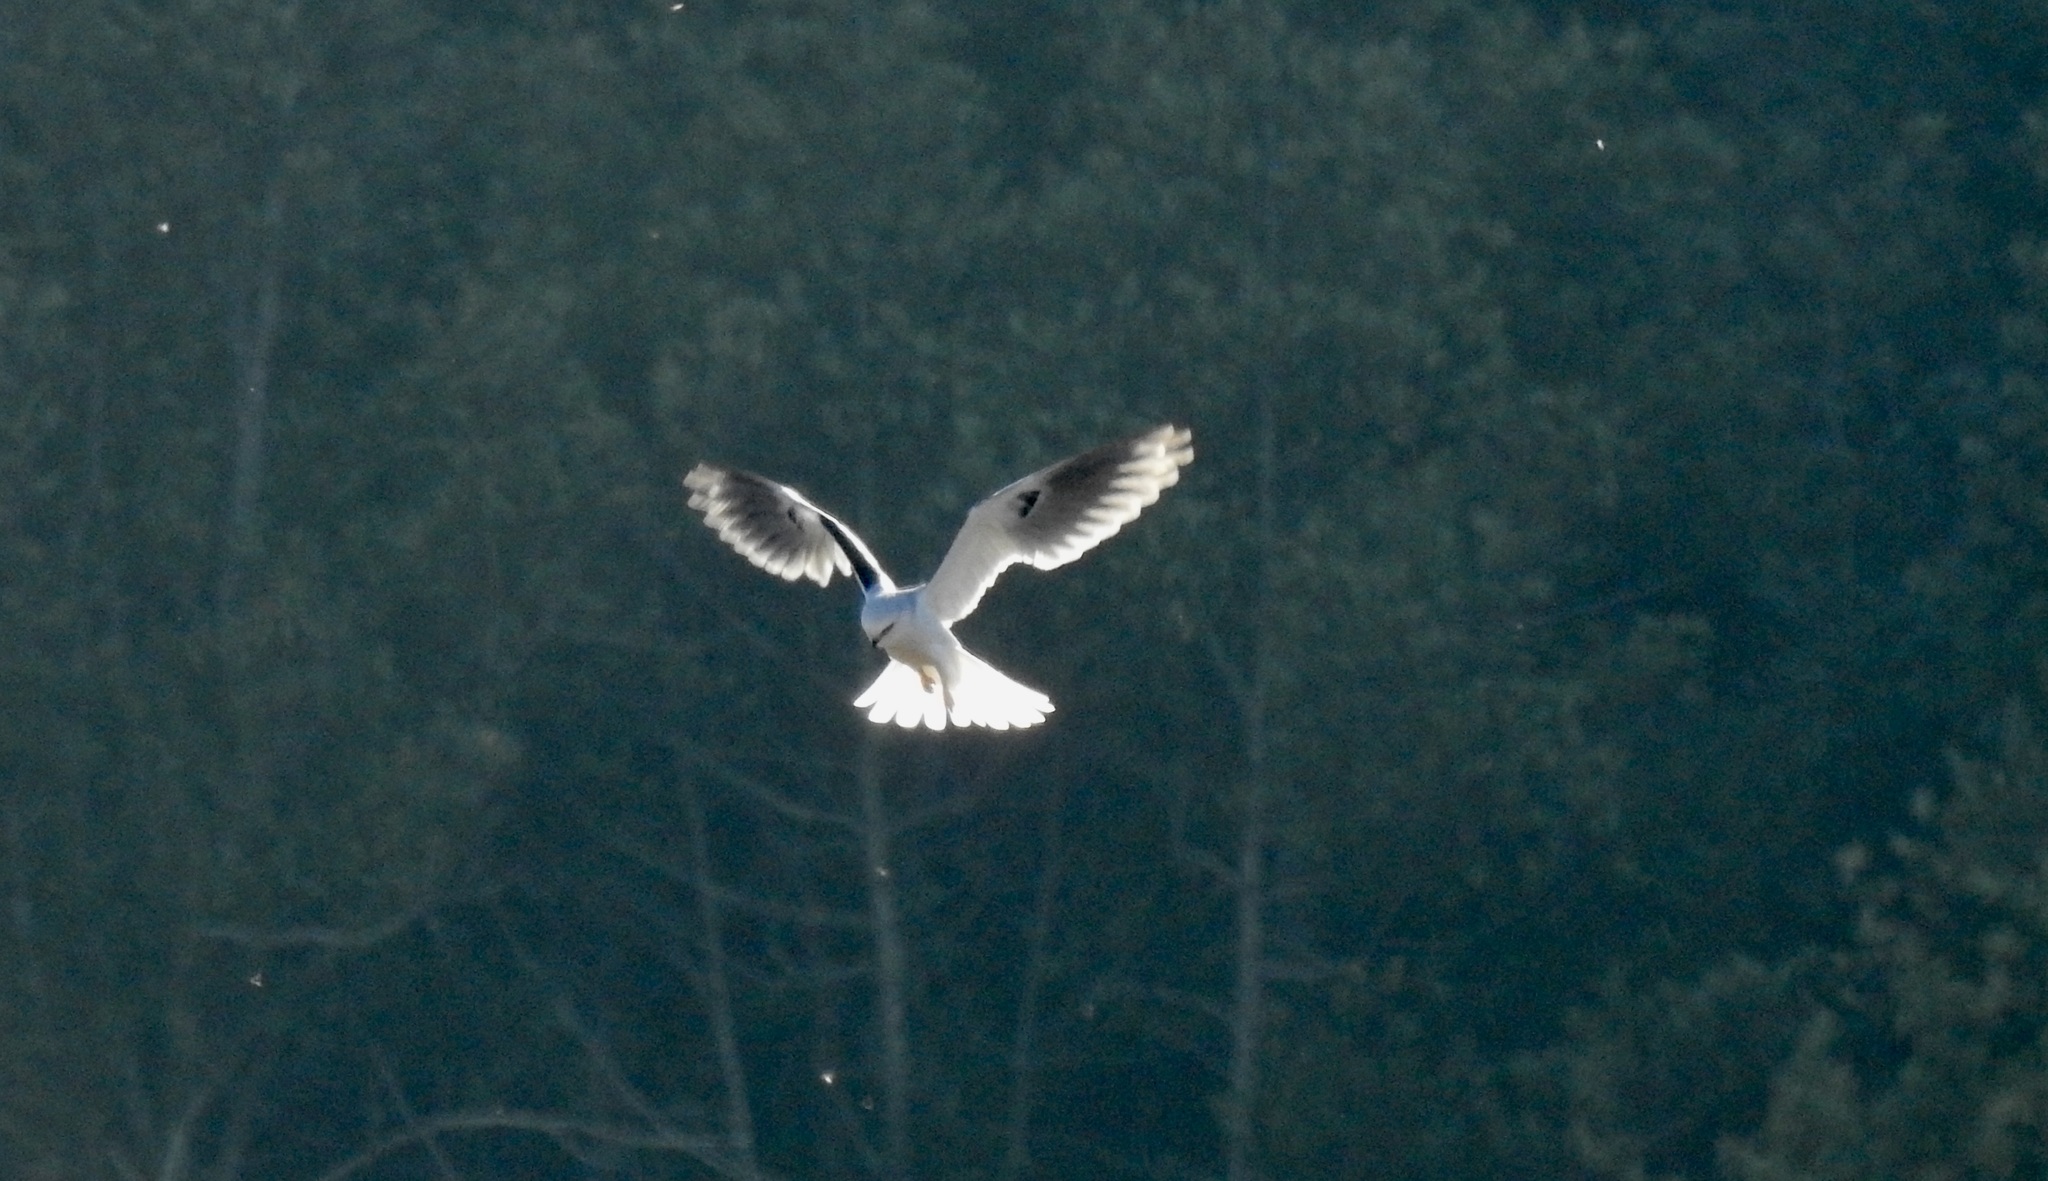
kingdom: Animalia
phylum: Chordata
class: Aves
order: Accipitriformes
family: Accipitridae
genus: Elanus
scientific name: Elanus leucurus
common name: White-tailed kite
